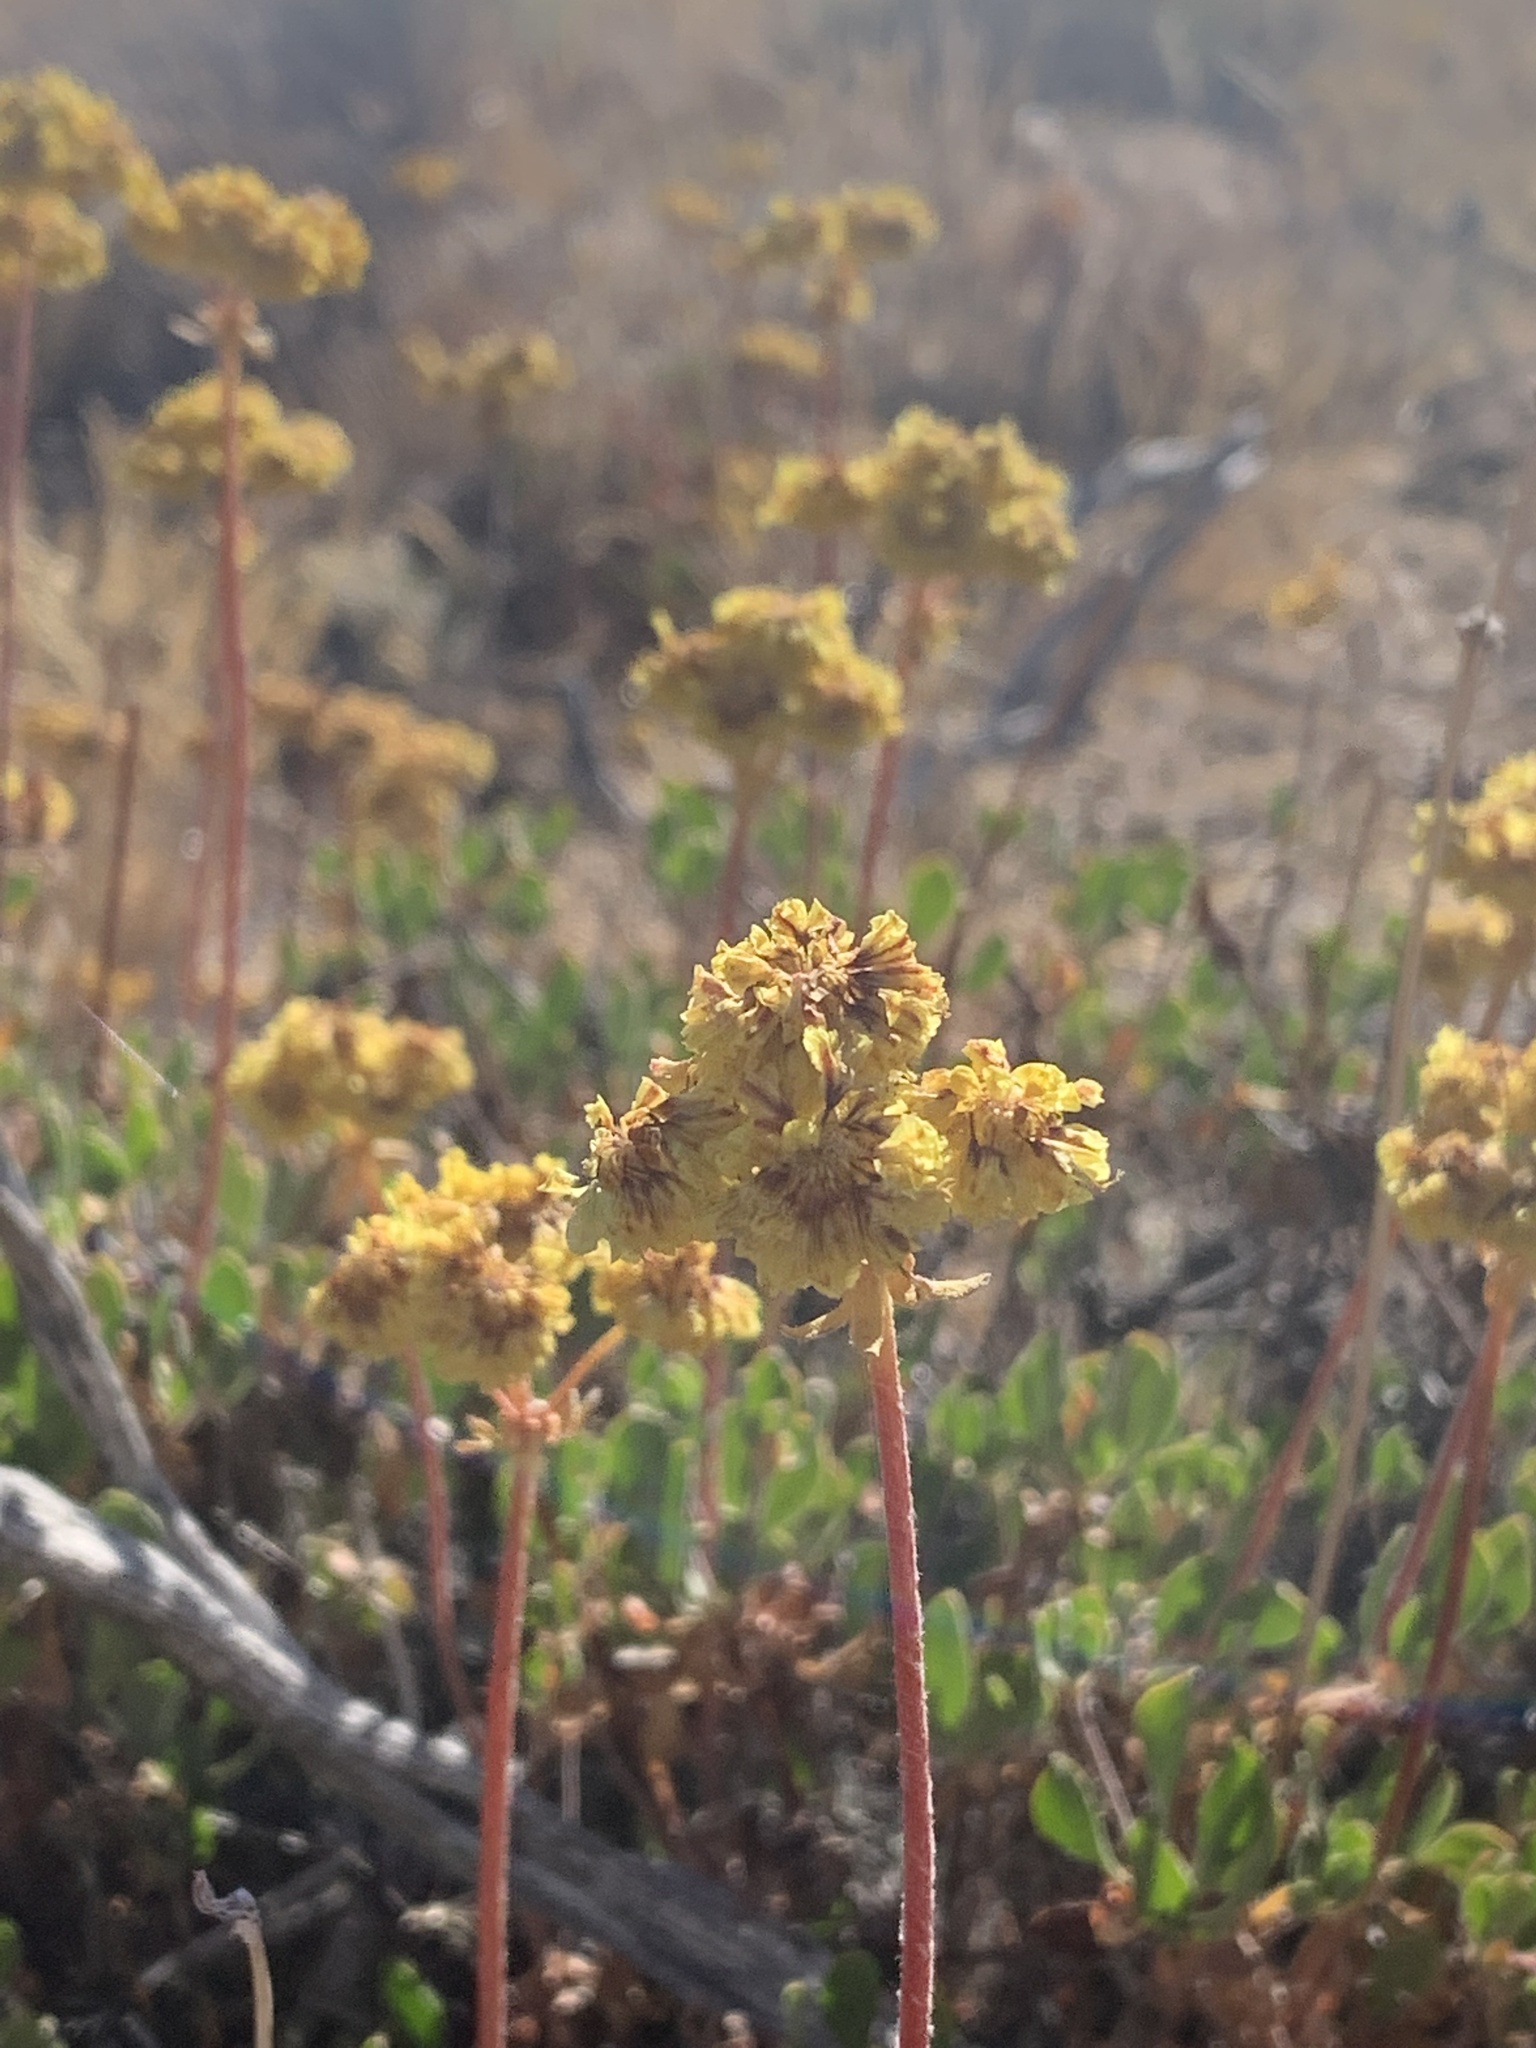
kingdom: Plantae
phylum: Tracheophyta
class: Magnoliopsida
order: Caryophyllales
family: Polygonaceae
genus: Eriogonum
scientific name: Eriogonum umbellatum
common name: Sulfur-buckwheat
